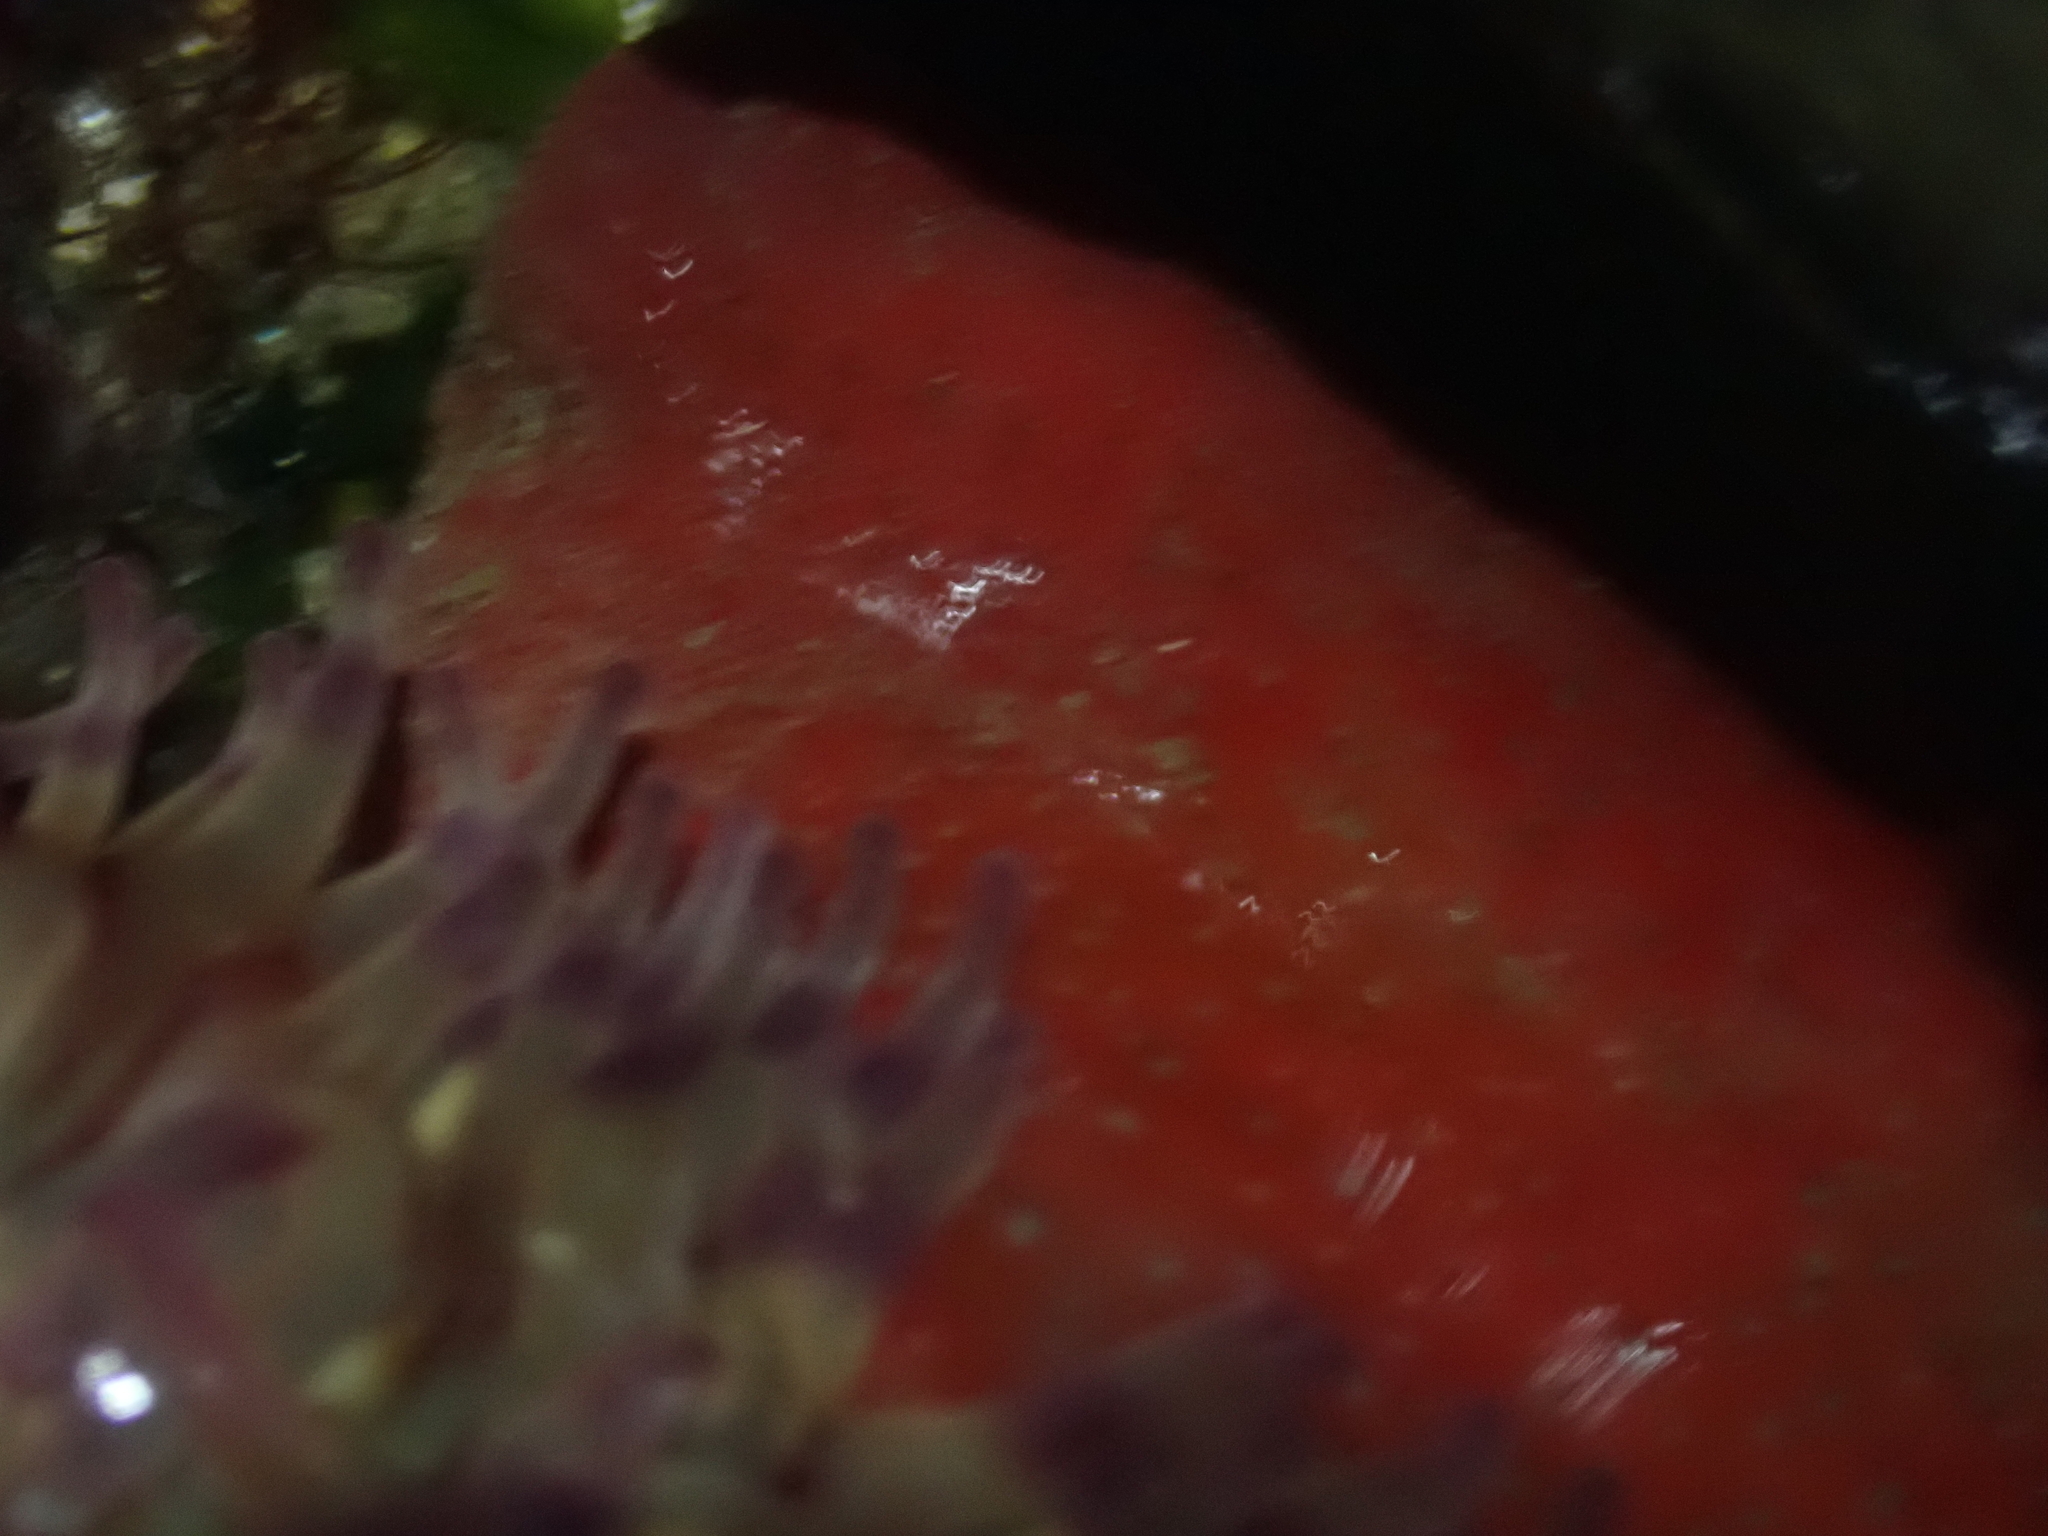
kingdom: Animalia
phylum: Cnidaria
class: Anthozoa
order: Actiniaria
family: Actiniidae
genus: Urticina
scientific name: Urticina grebelnyi
